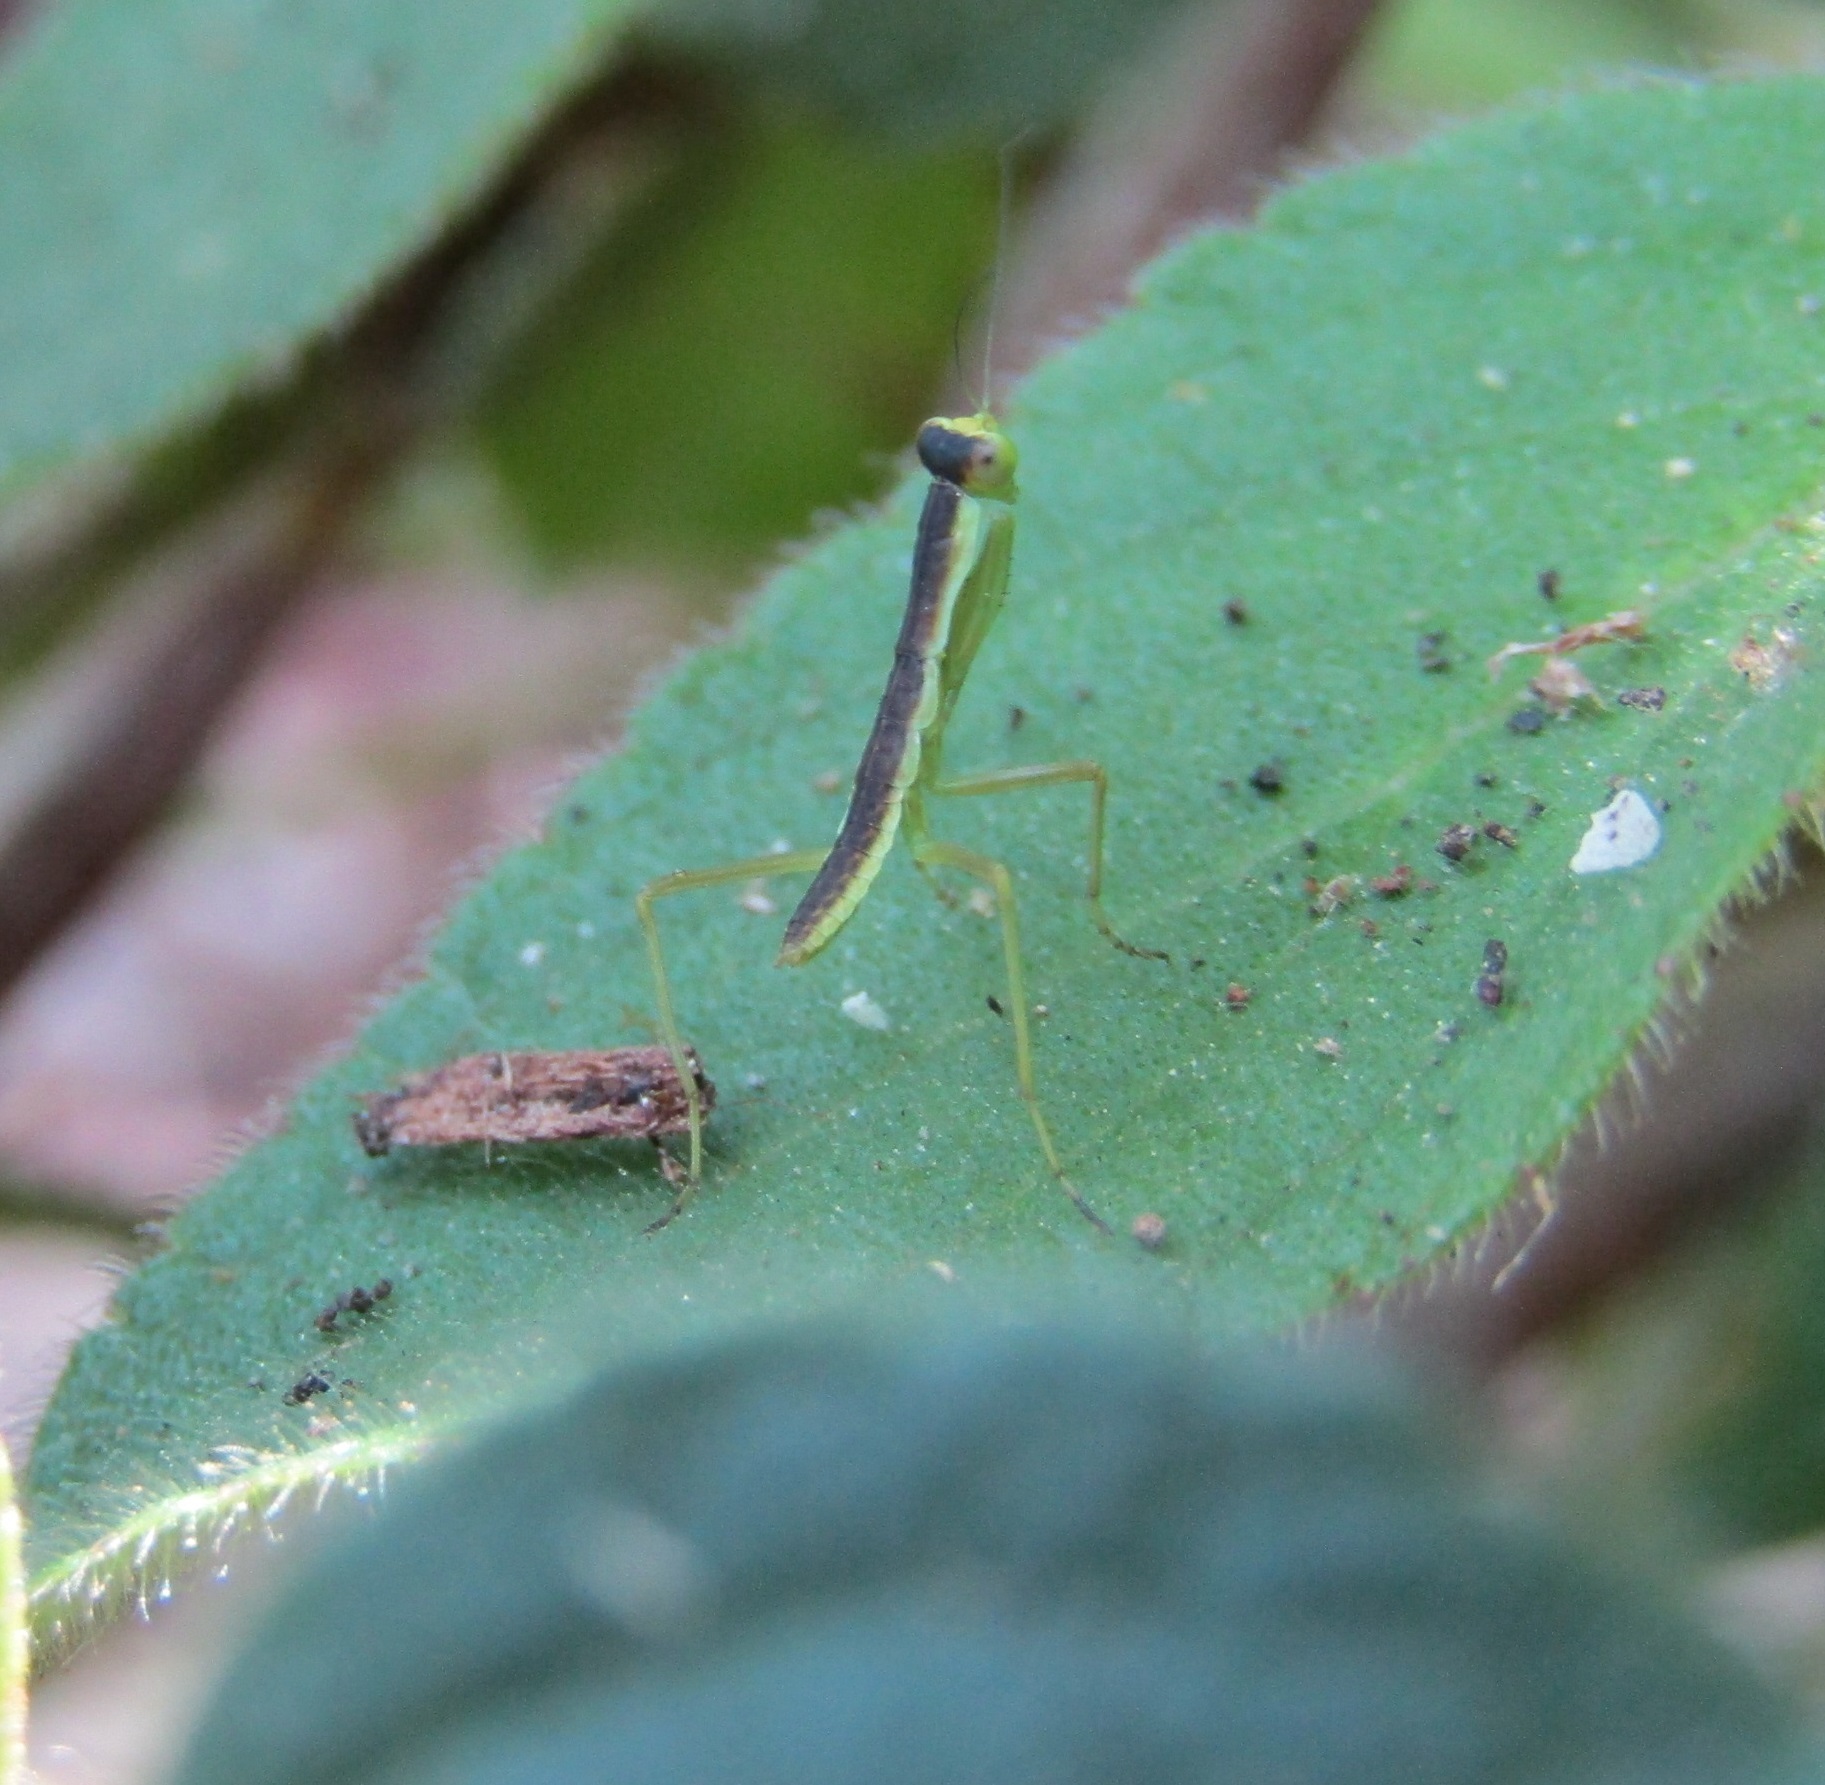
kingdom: Animalia
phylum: Arthropoda
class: Insecta
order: Mantodea
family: Mantidae
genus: Orthodera
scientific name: Orthodera novaezealandiae
